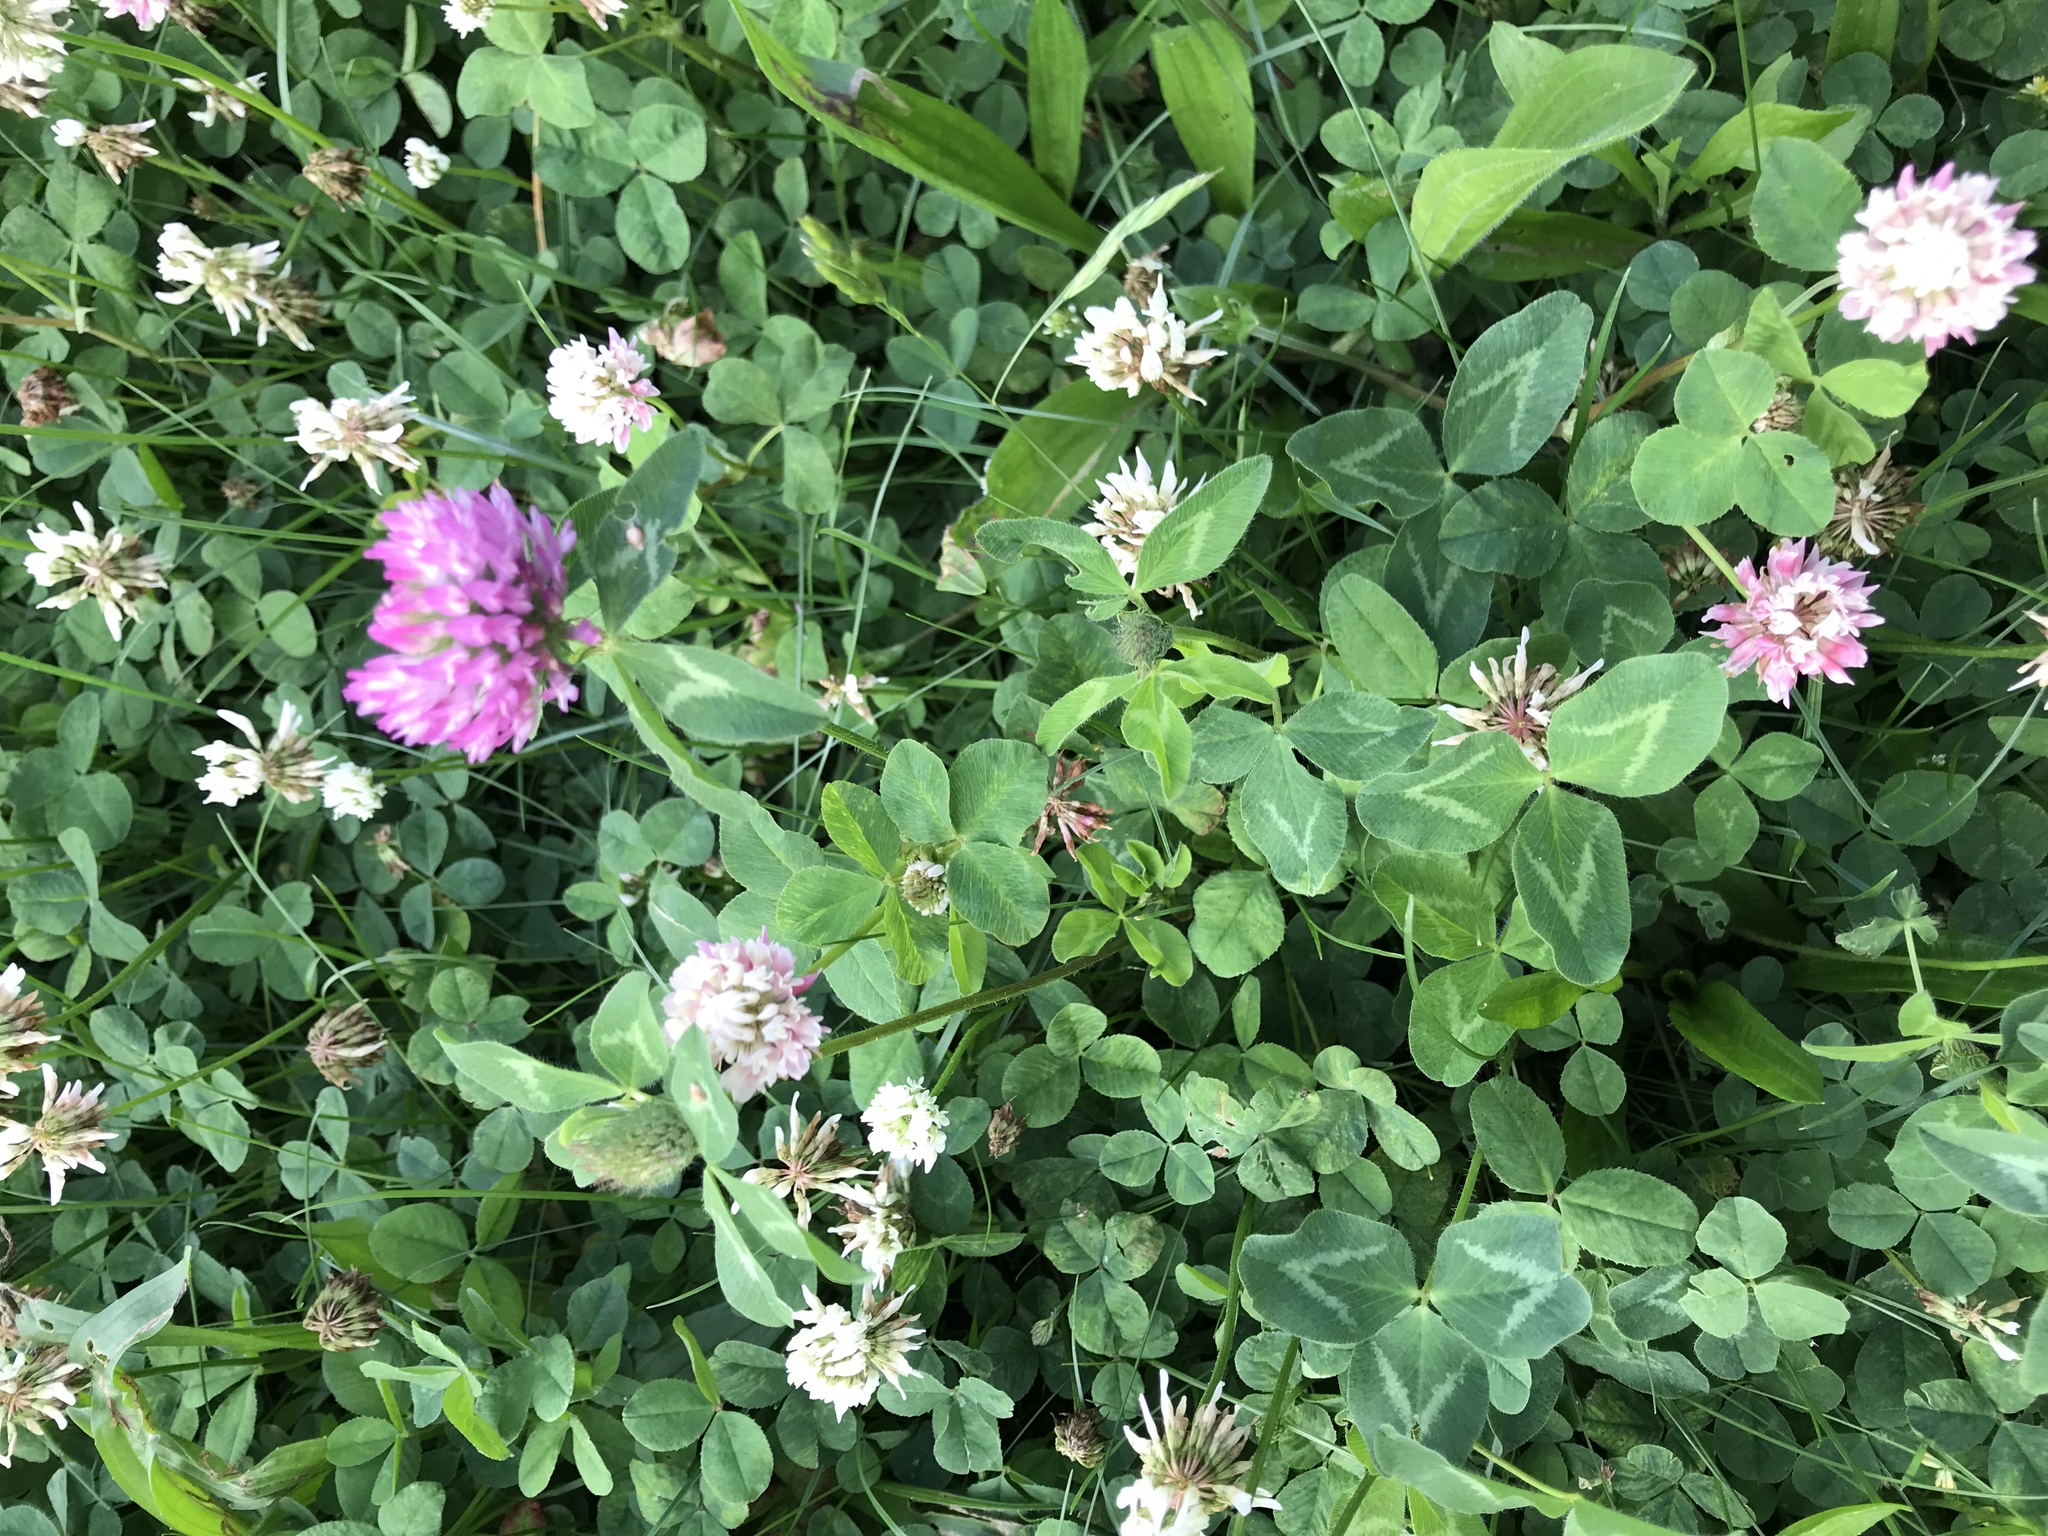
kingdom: Plantae
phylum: Tracheophyta
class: Magnoliopsida
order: Fabales
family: Fabaceae
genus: Trifolium
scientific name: Trifolium pratense
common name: Red clover
